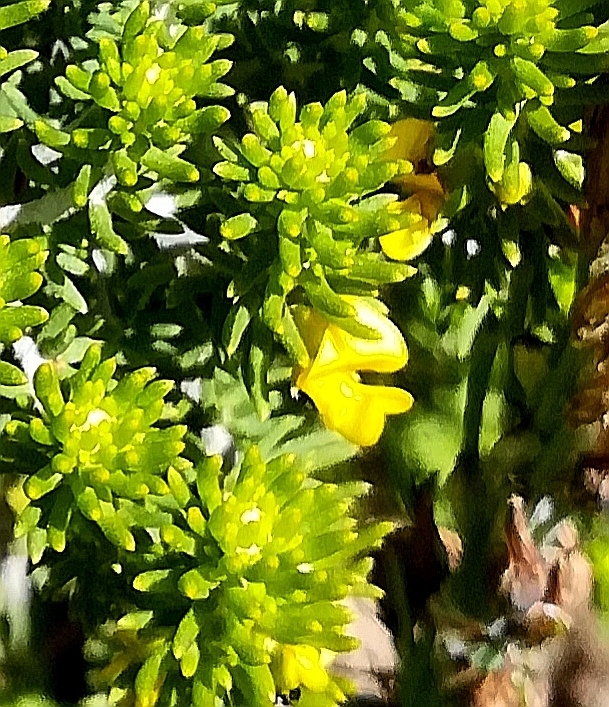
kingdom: Plantae
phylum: Tracheophyta
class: Magnoliopsida
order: Fabales
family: Fabaceae
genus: Aspalathus
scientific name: Aspalathus pinguis
